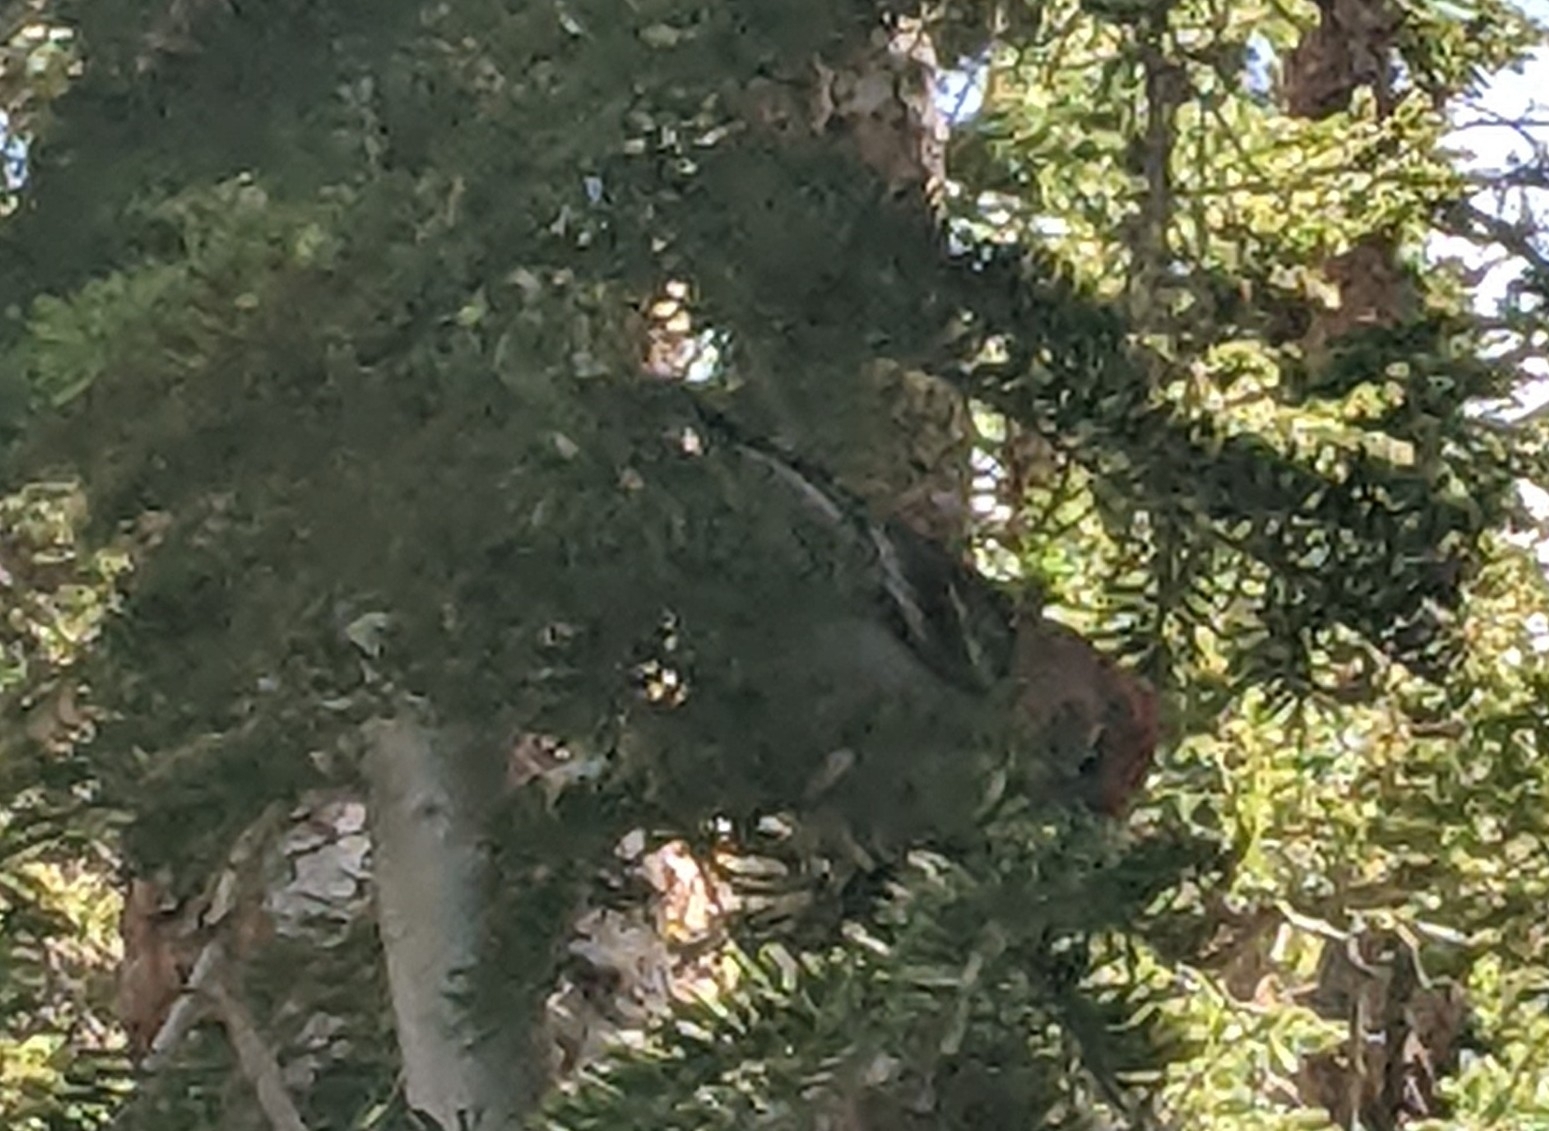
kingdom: Animalia
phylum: Chordata
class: Aves
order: Passeriformes
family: Fringillidae
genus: Pinicola
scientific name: Pinicola enucleator
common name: Pine grosbeak
